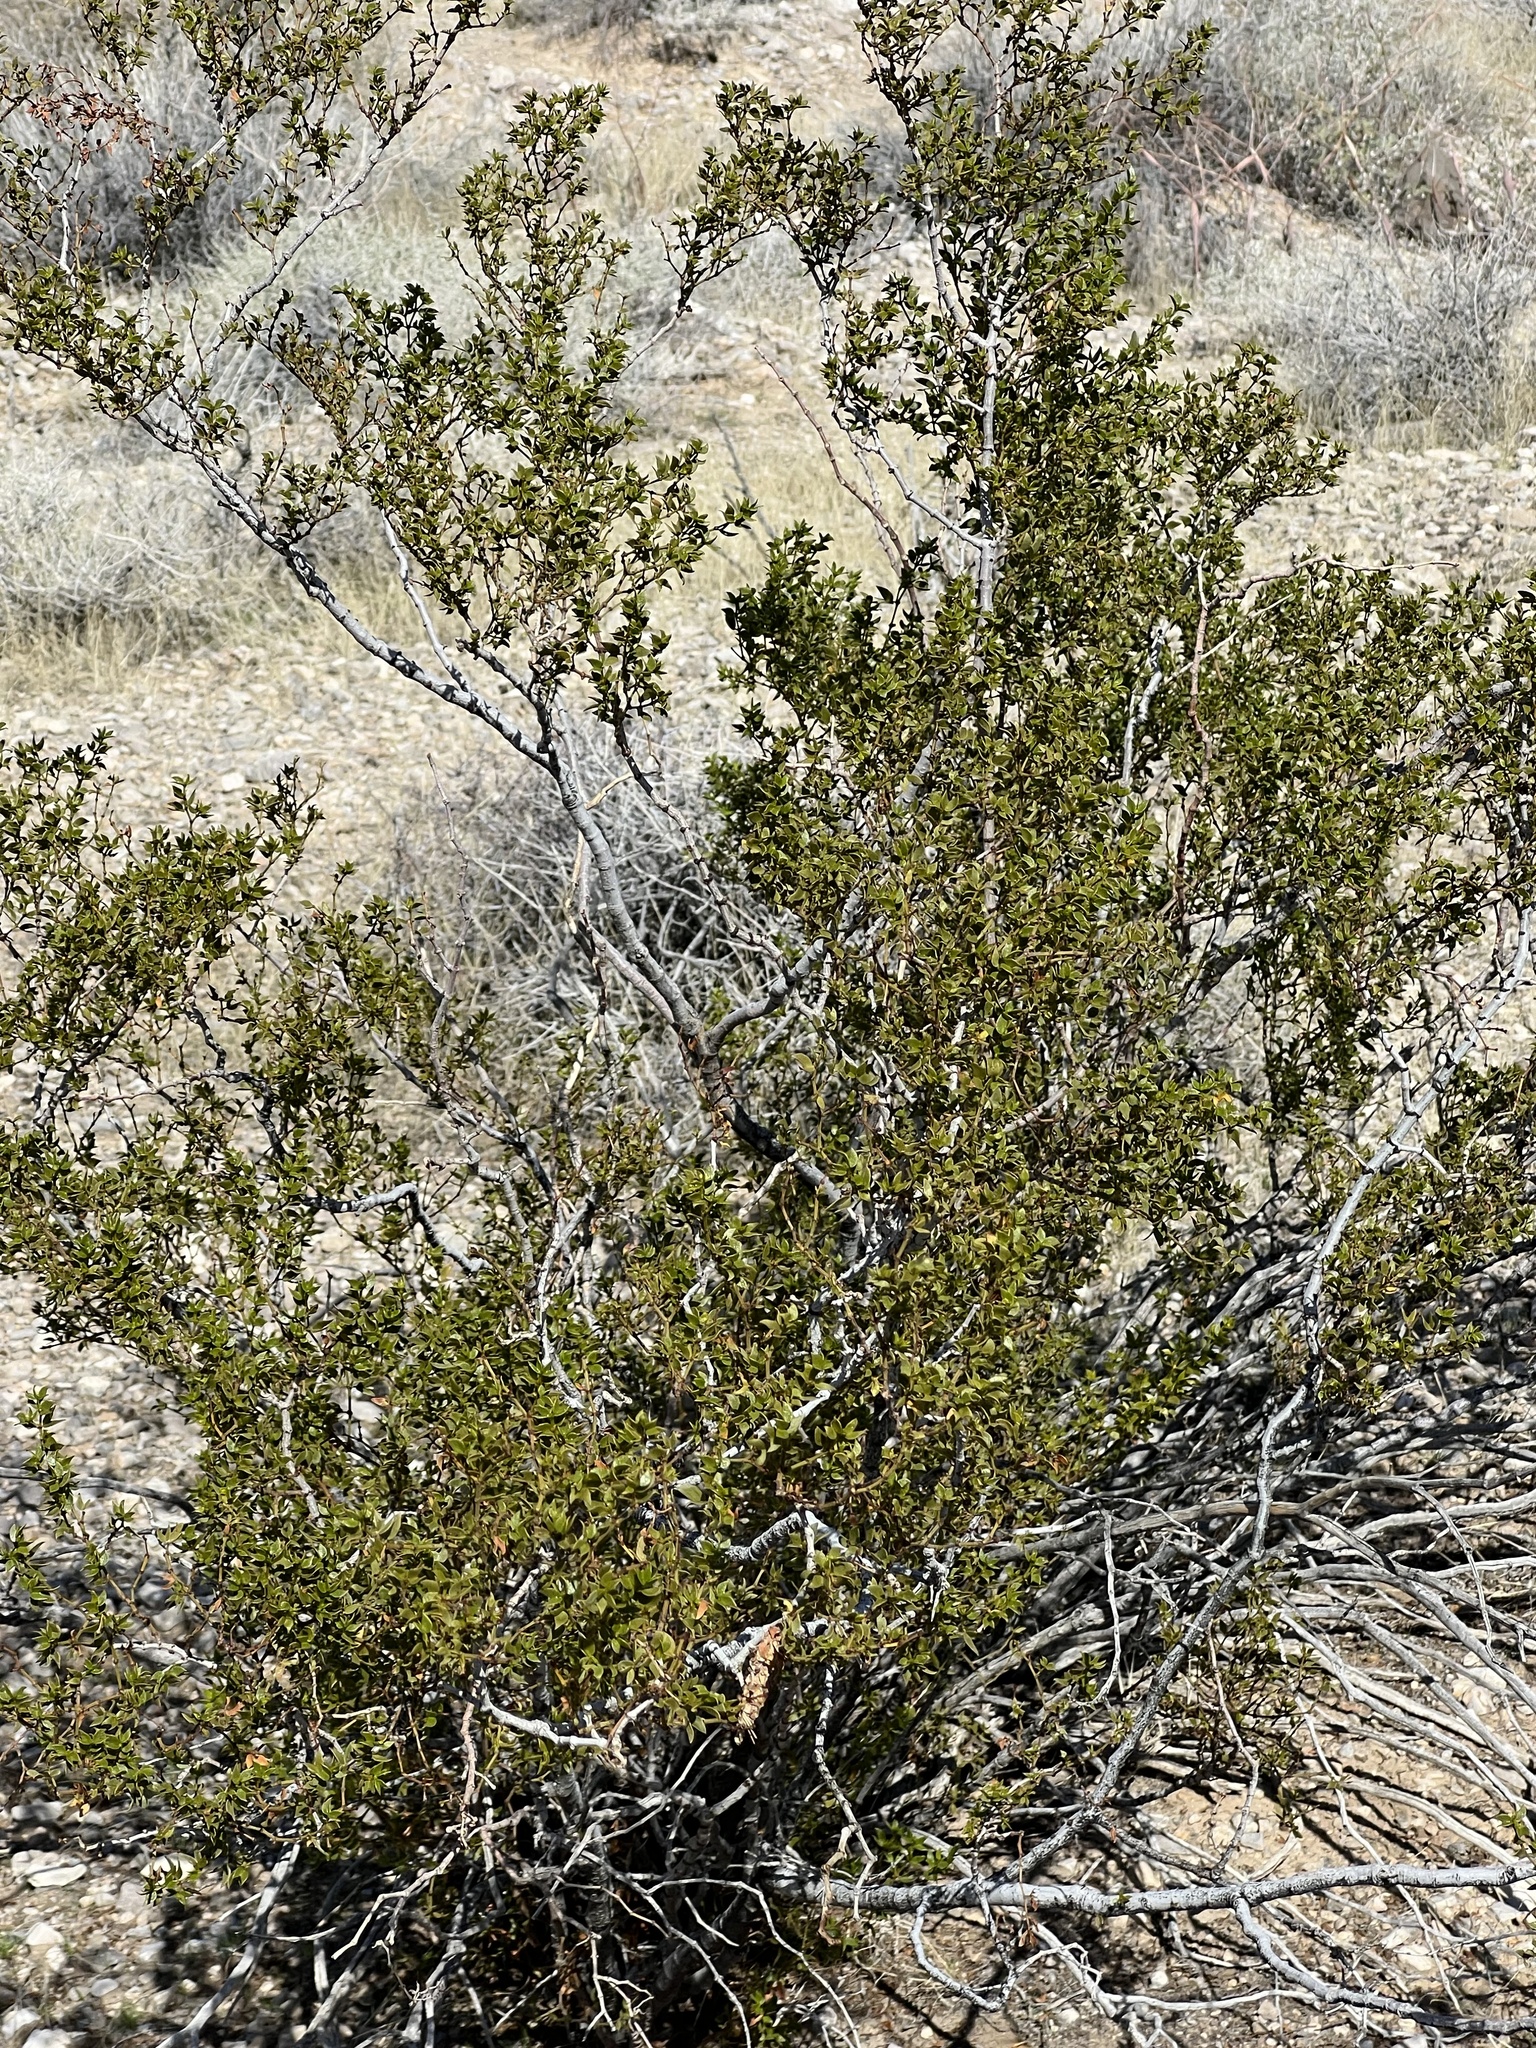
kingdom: Plantae
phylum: Tracheophyta
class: Magnoliopsida
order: Zygophyllales
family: Zygophyllaceae
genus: Larrea
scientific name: Larrea tridentata
